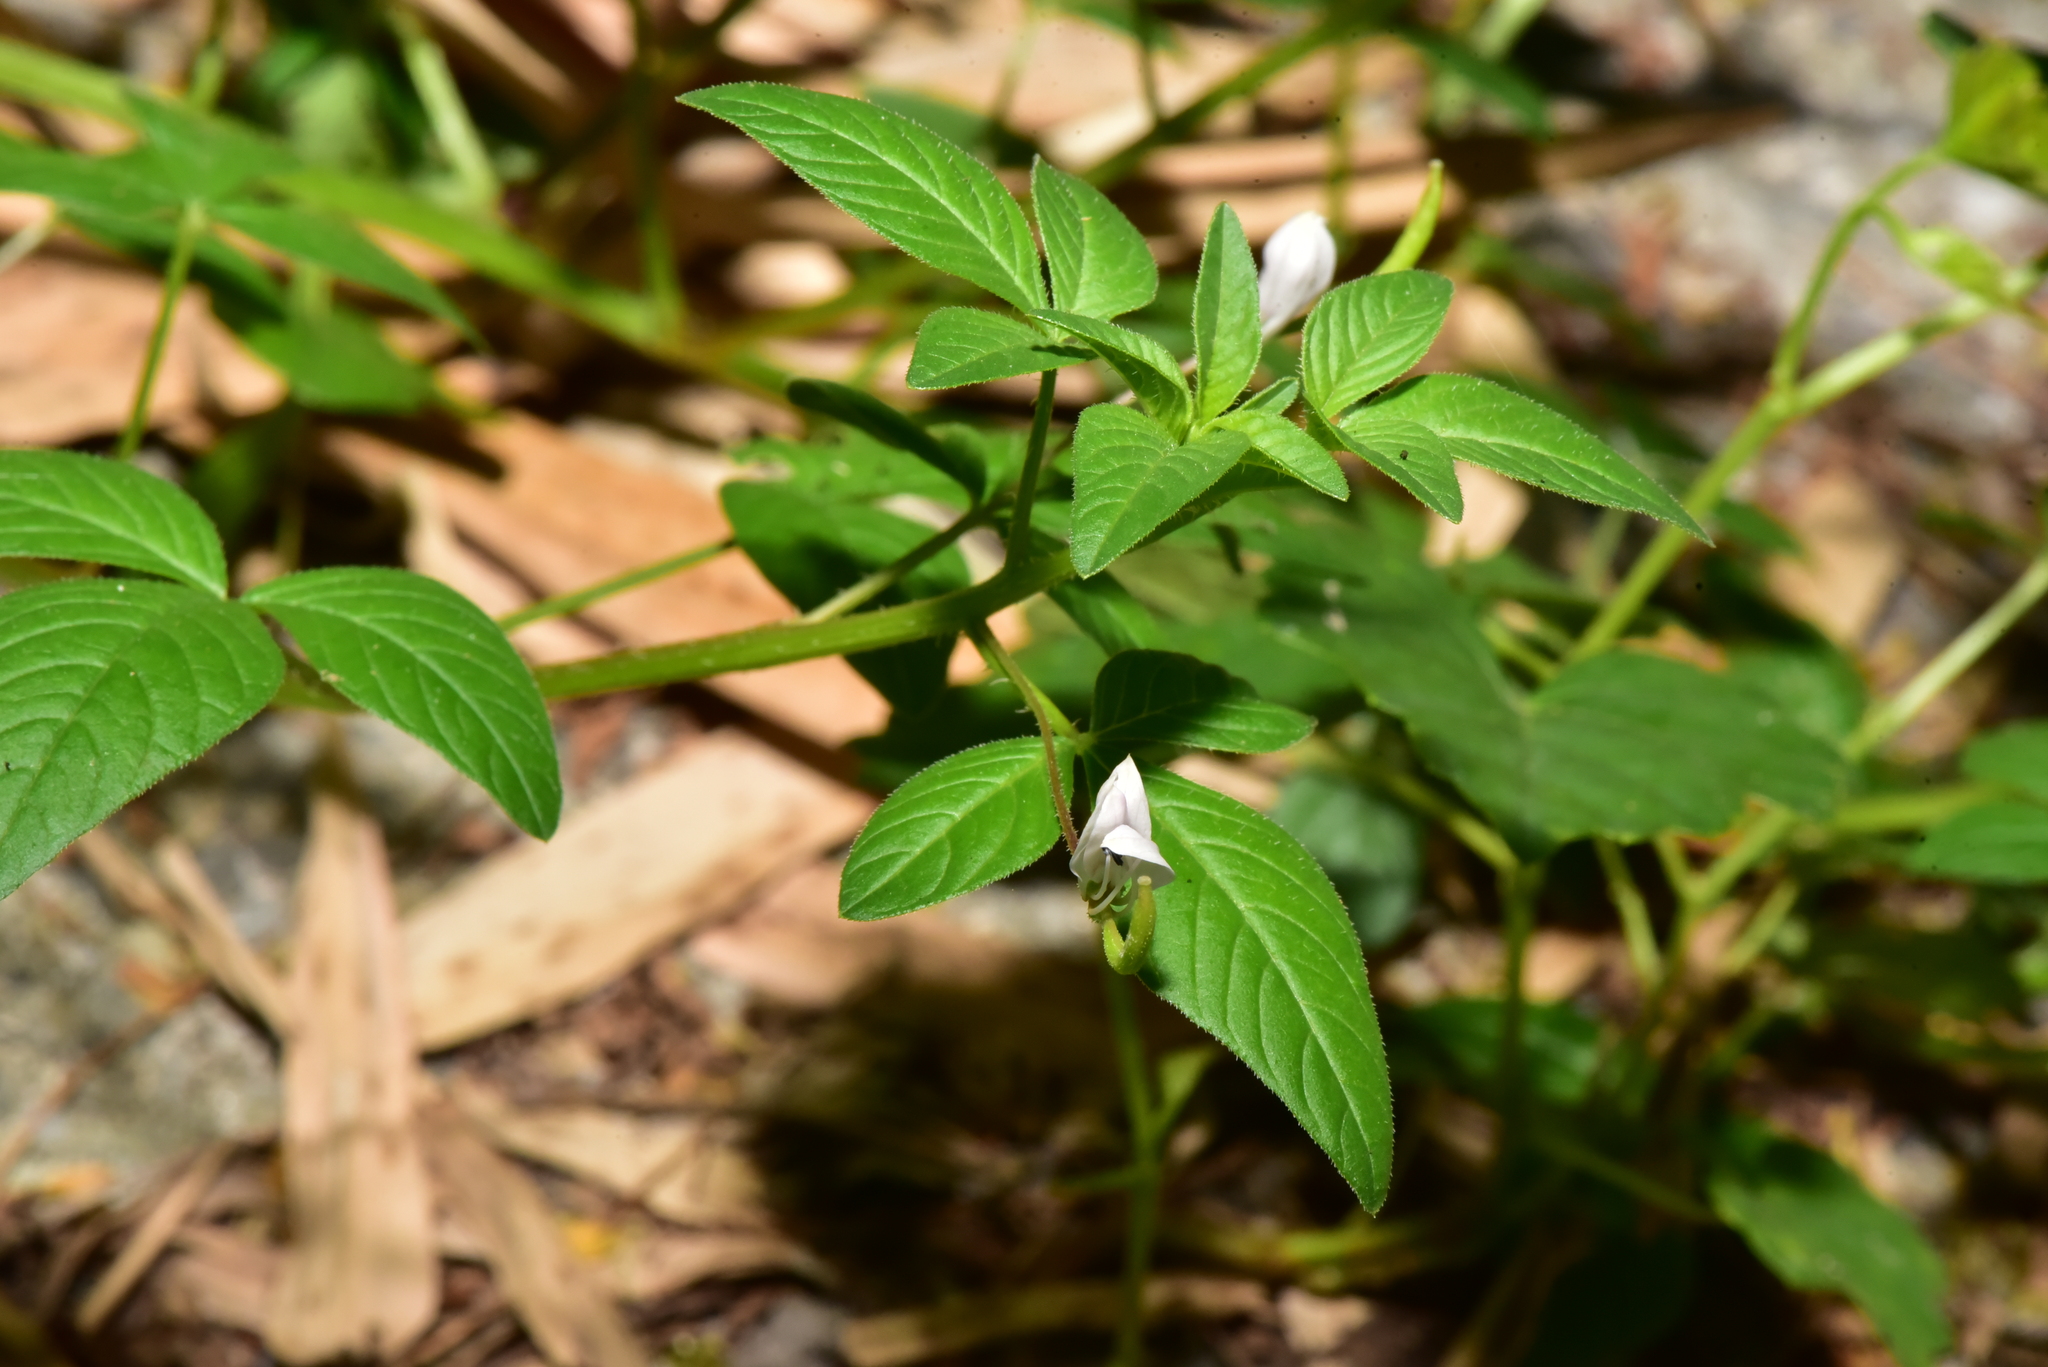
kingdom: Plantae
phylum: Tracheophyta
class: Magnoliopsida
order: Brassicales
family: Cleomaceae
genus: Sieruela
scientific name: Sieruela rutidosperma
